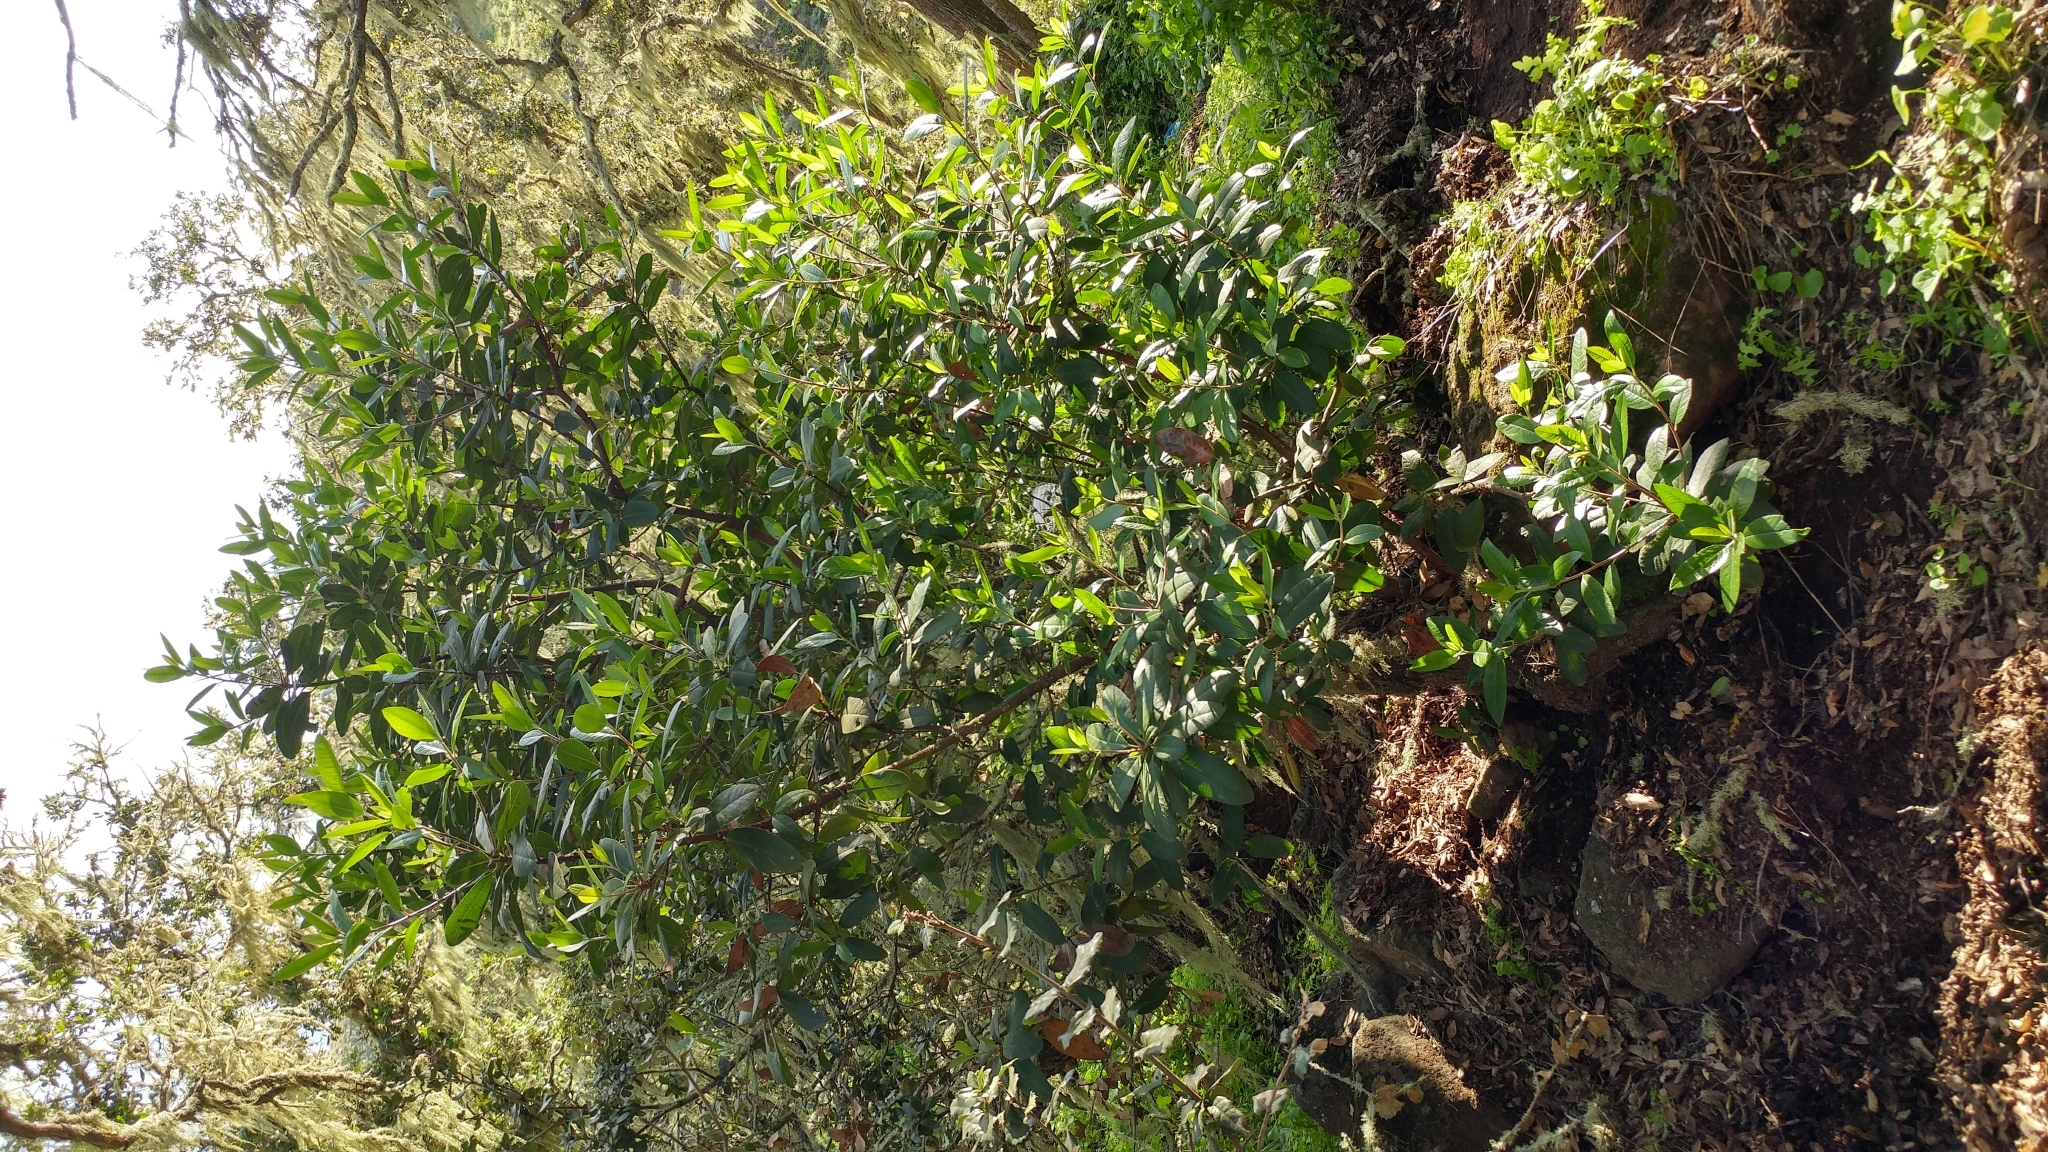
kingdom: Plantae
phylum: Tracheophyta
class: Magnoliopsida
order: Rosales
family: Rosaceae
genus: Heteromeles
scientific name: Heteromeles arbutifolia
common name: California-holly
